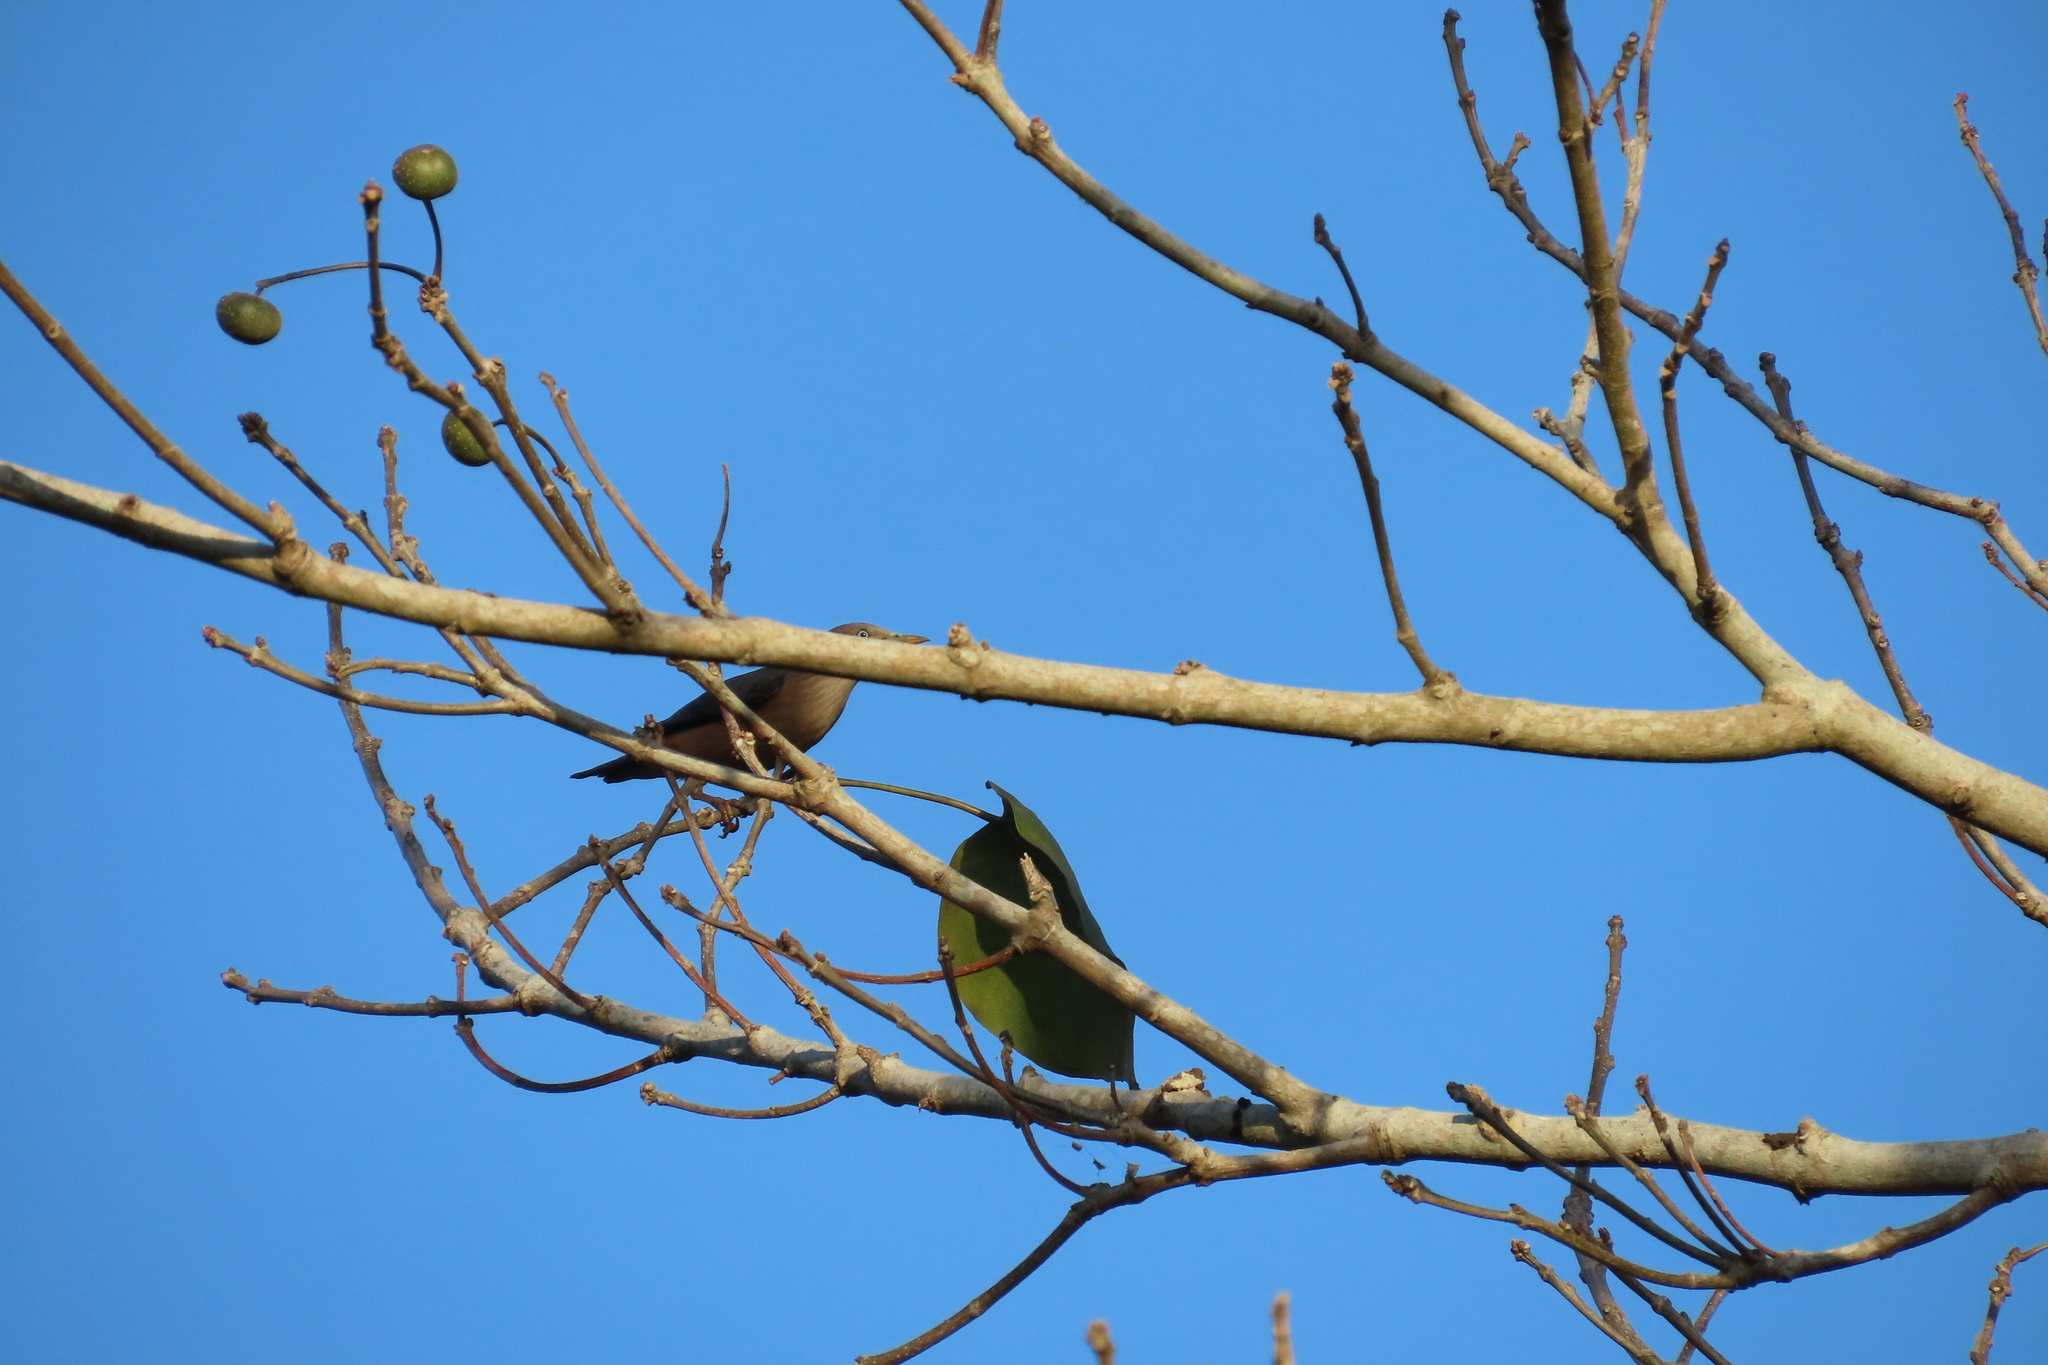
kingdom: Animalia
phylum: Chordata
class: Aves
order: Passeriformes
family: Sturnidae
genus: Sturnia
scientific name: Sturnia malabarica
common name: Chestnut-tailed starling
